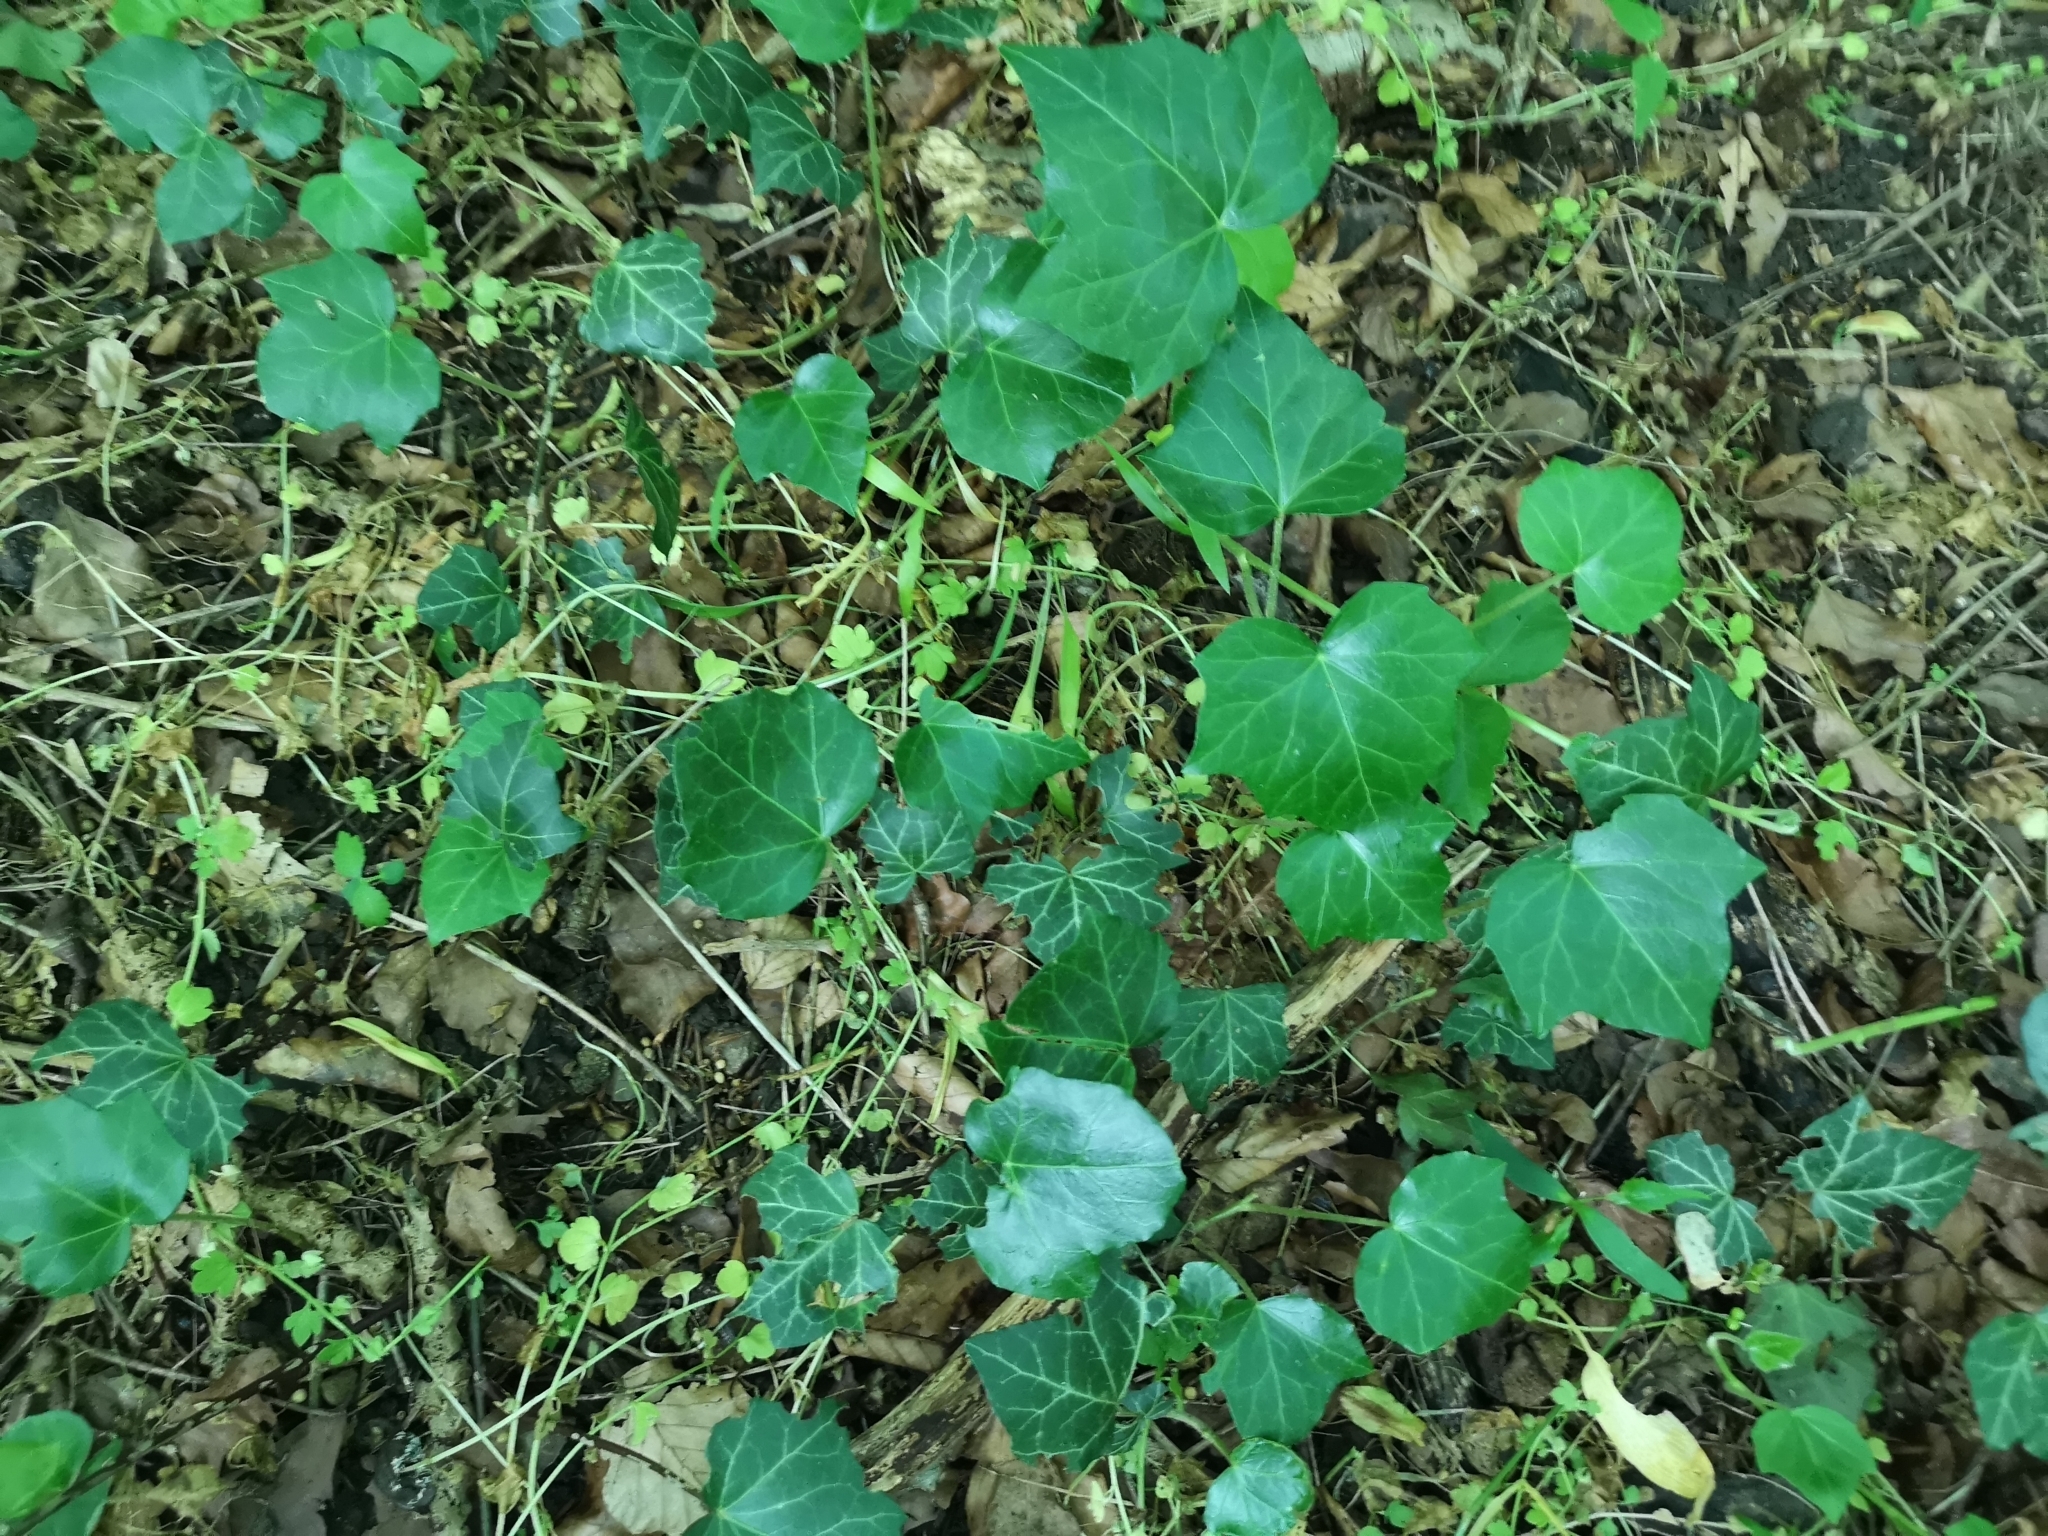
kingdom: Plantae
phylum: Tracheophyta
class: Magnoliopsida
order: Apiales
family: Araliaceae
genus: Hedera
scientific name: Hedera helix
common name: Ivy
